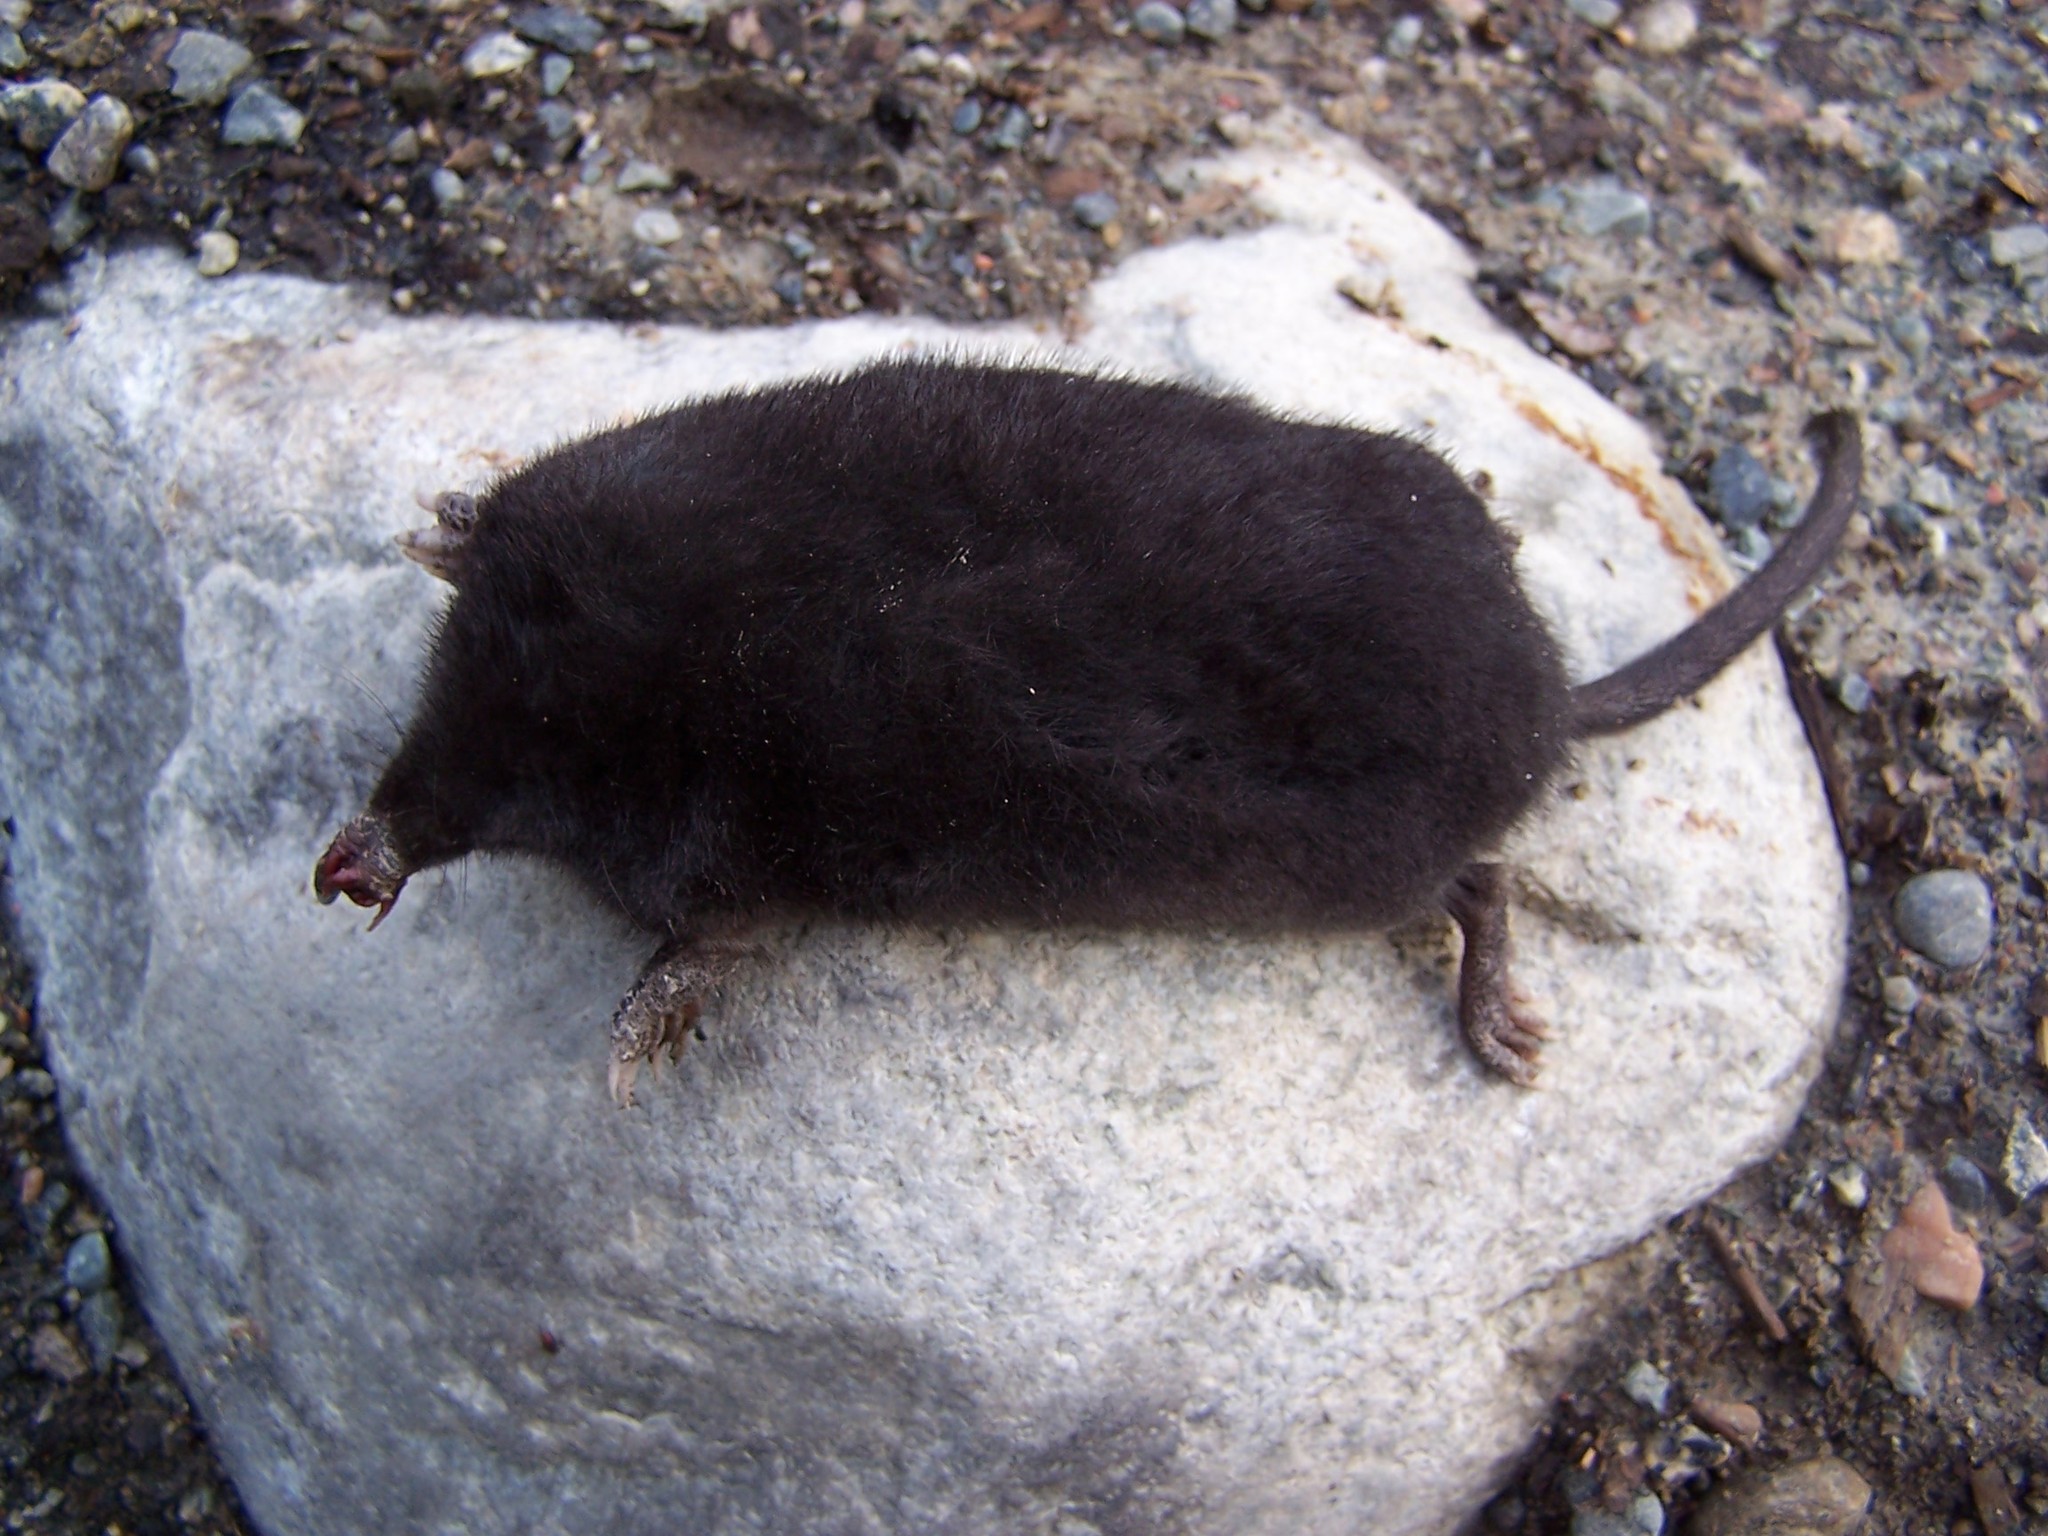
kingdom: Animalia
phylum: Chordata
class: Mammalia
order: Soricomorpha
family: Talpidae
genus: Condylura
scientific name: Condylura cristata
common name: Star-nosed mole
